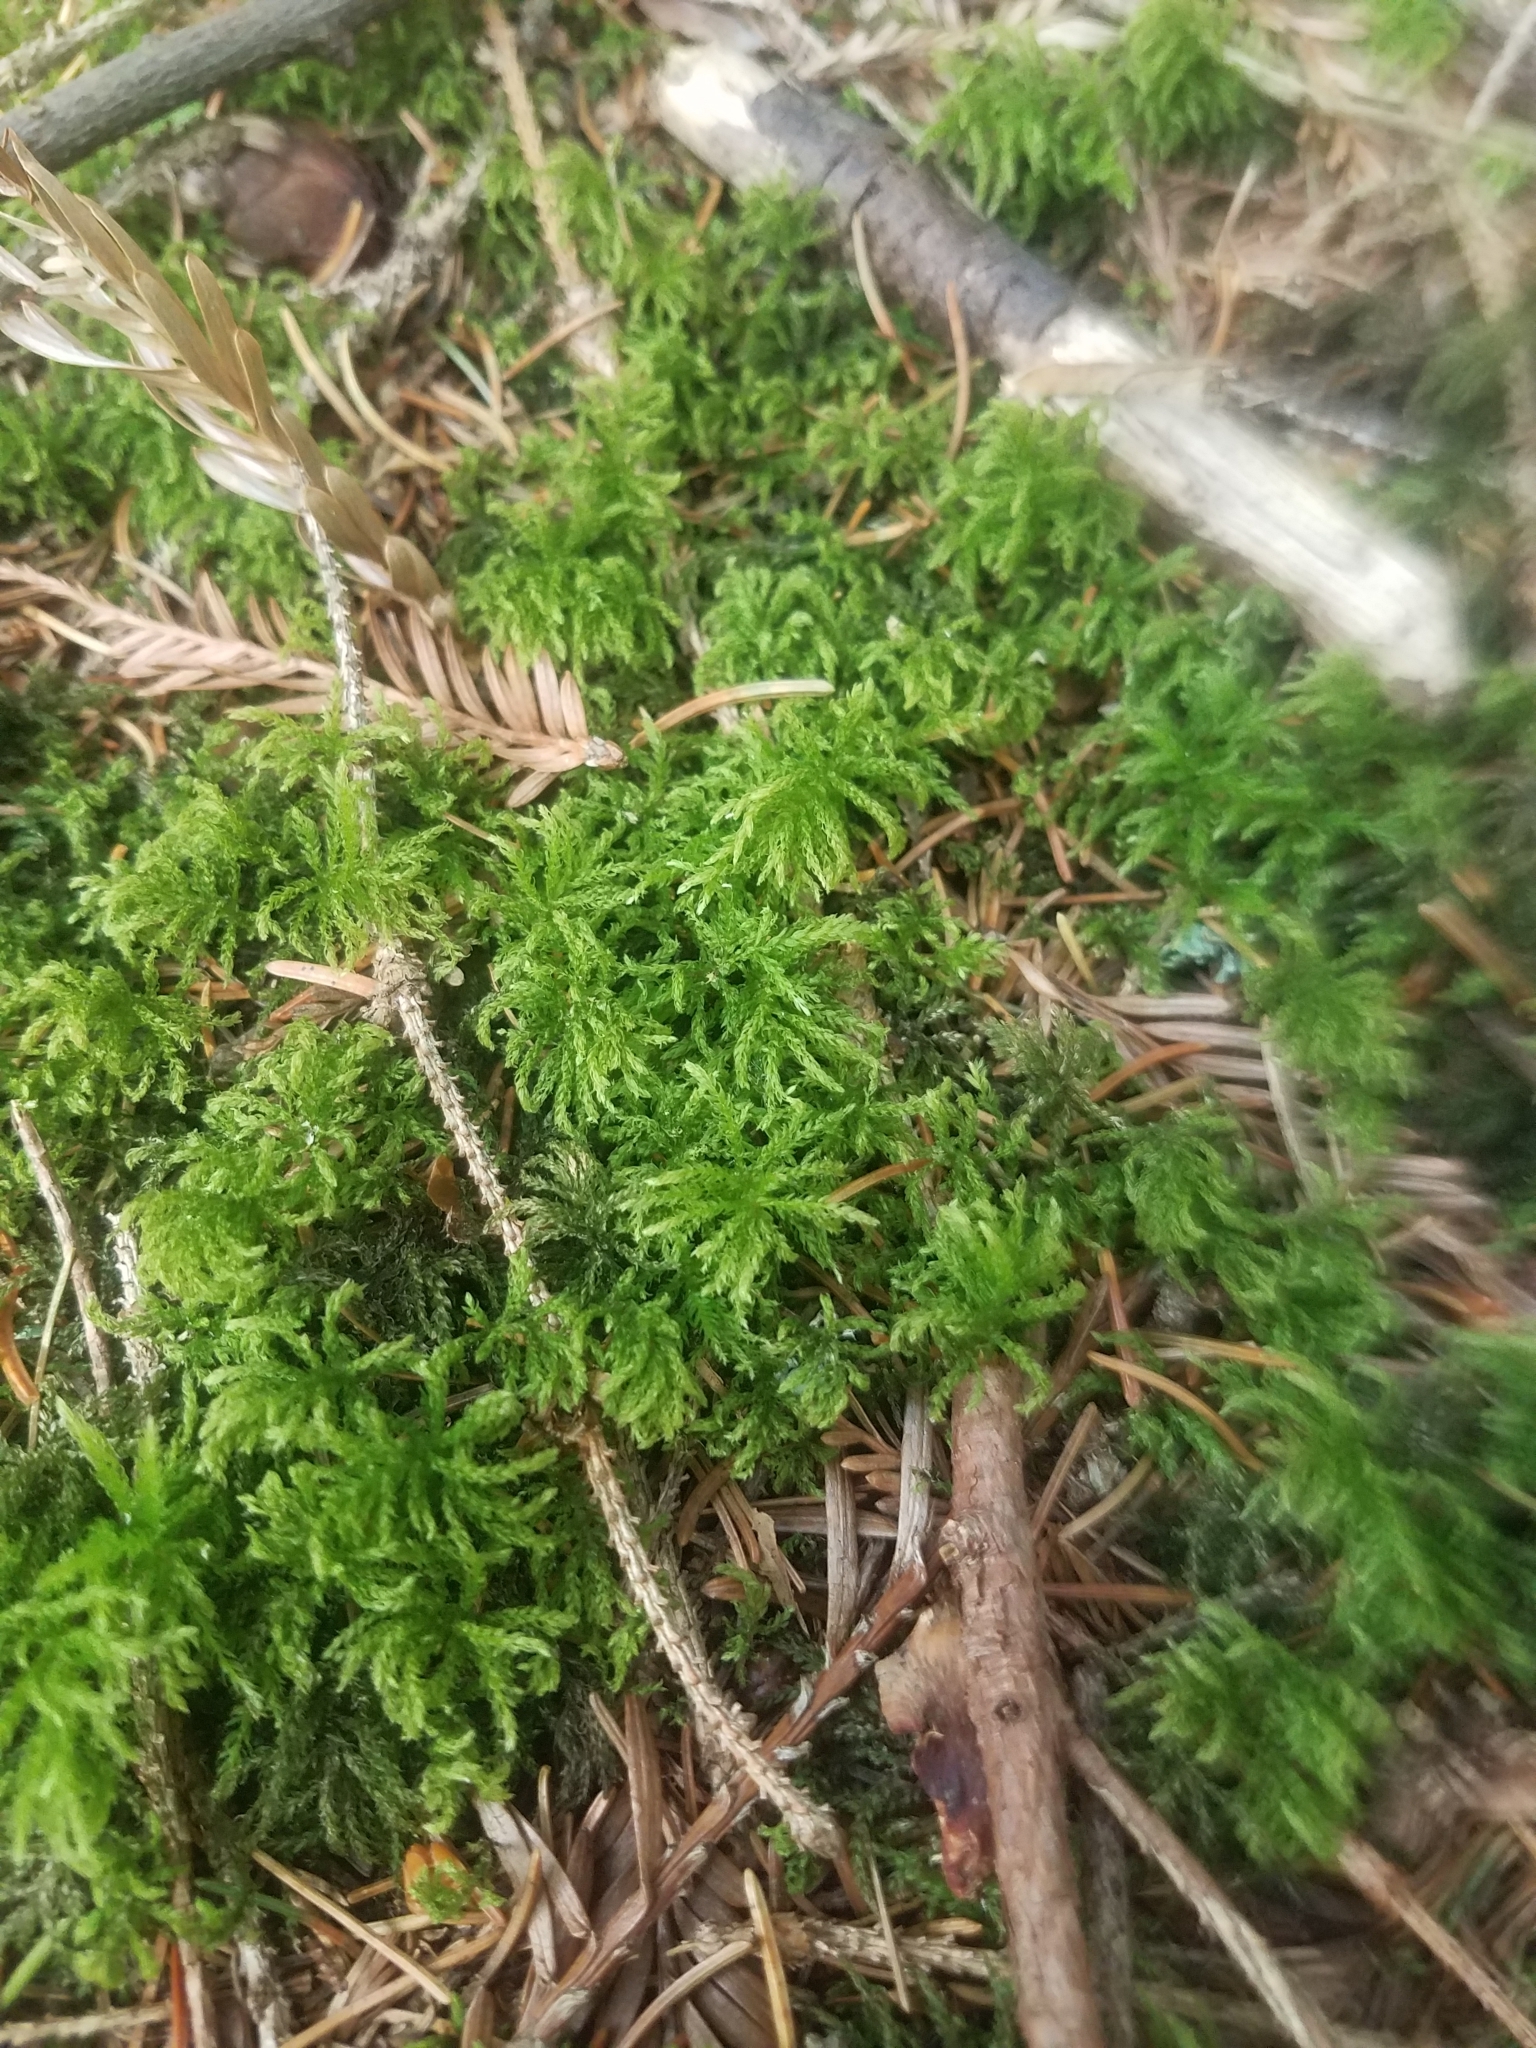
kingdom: Plantae
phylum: Bryophyta
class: Bryopsida
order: Bryales
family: Mniaceae
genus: Leucolepis
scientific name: Leucolepis acanthoneura
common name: Leucolepis umbrella moss
